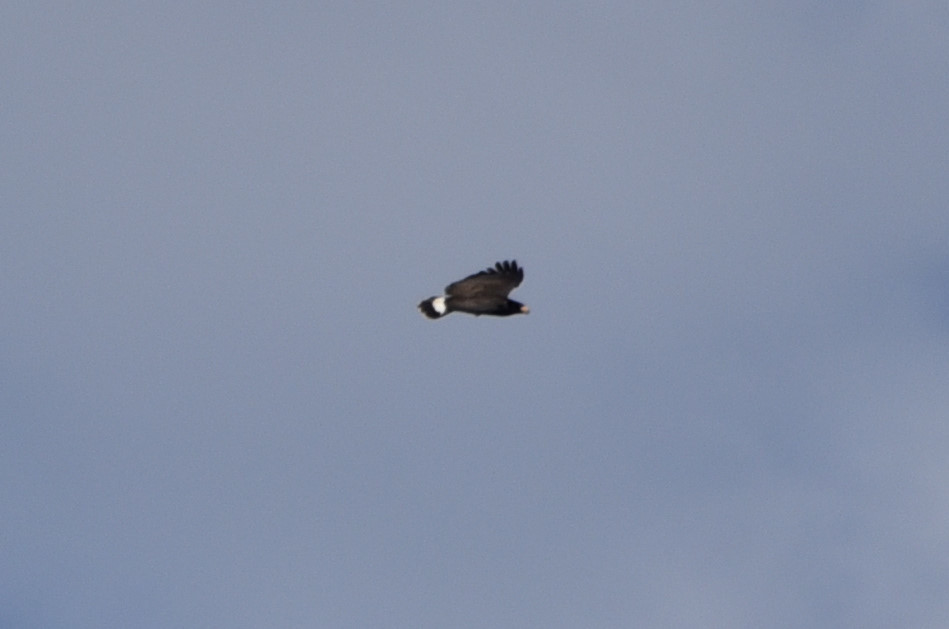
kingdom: Animalia
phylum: Chordata
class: Aves
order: Accipitriformes
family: Accipitridae
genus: Buteogallus
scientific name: Buteogallus anthracinus
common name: Common black hawk
